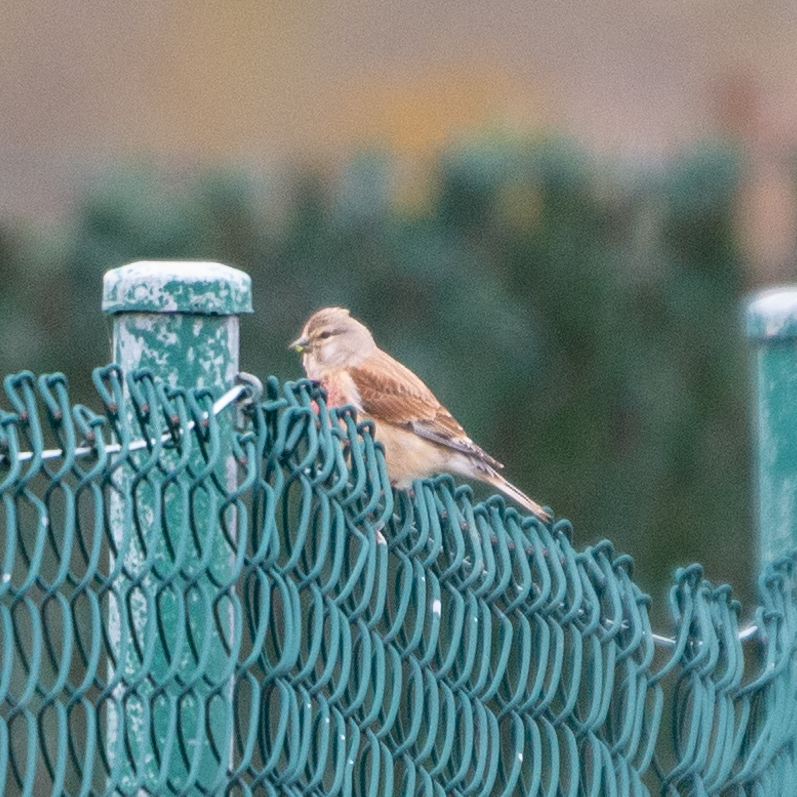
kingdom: Animalia
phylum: Chordata
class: Aves
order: Passeriformes
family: Fringillidae
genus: Linaria
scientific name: Linaria cannabina
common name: Common linnet
